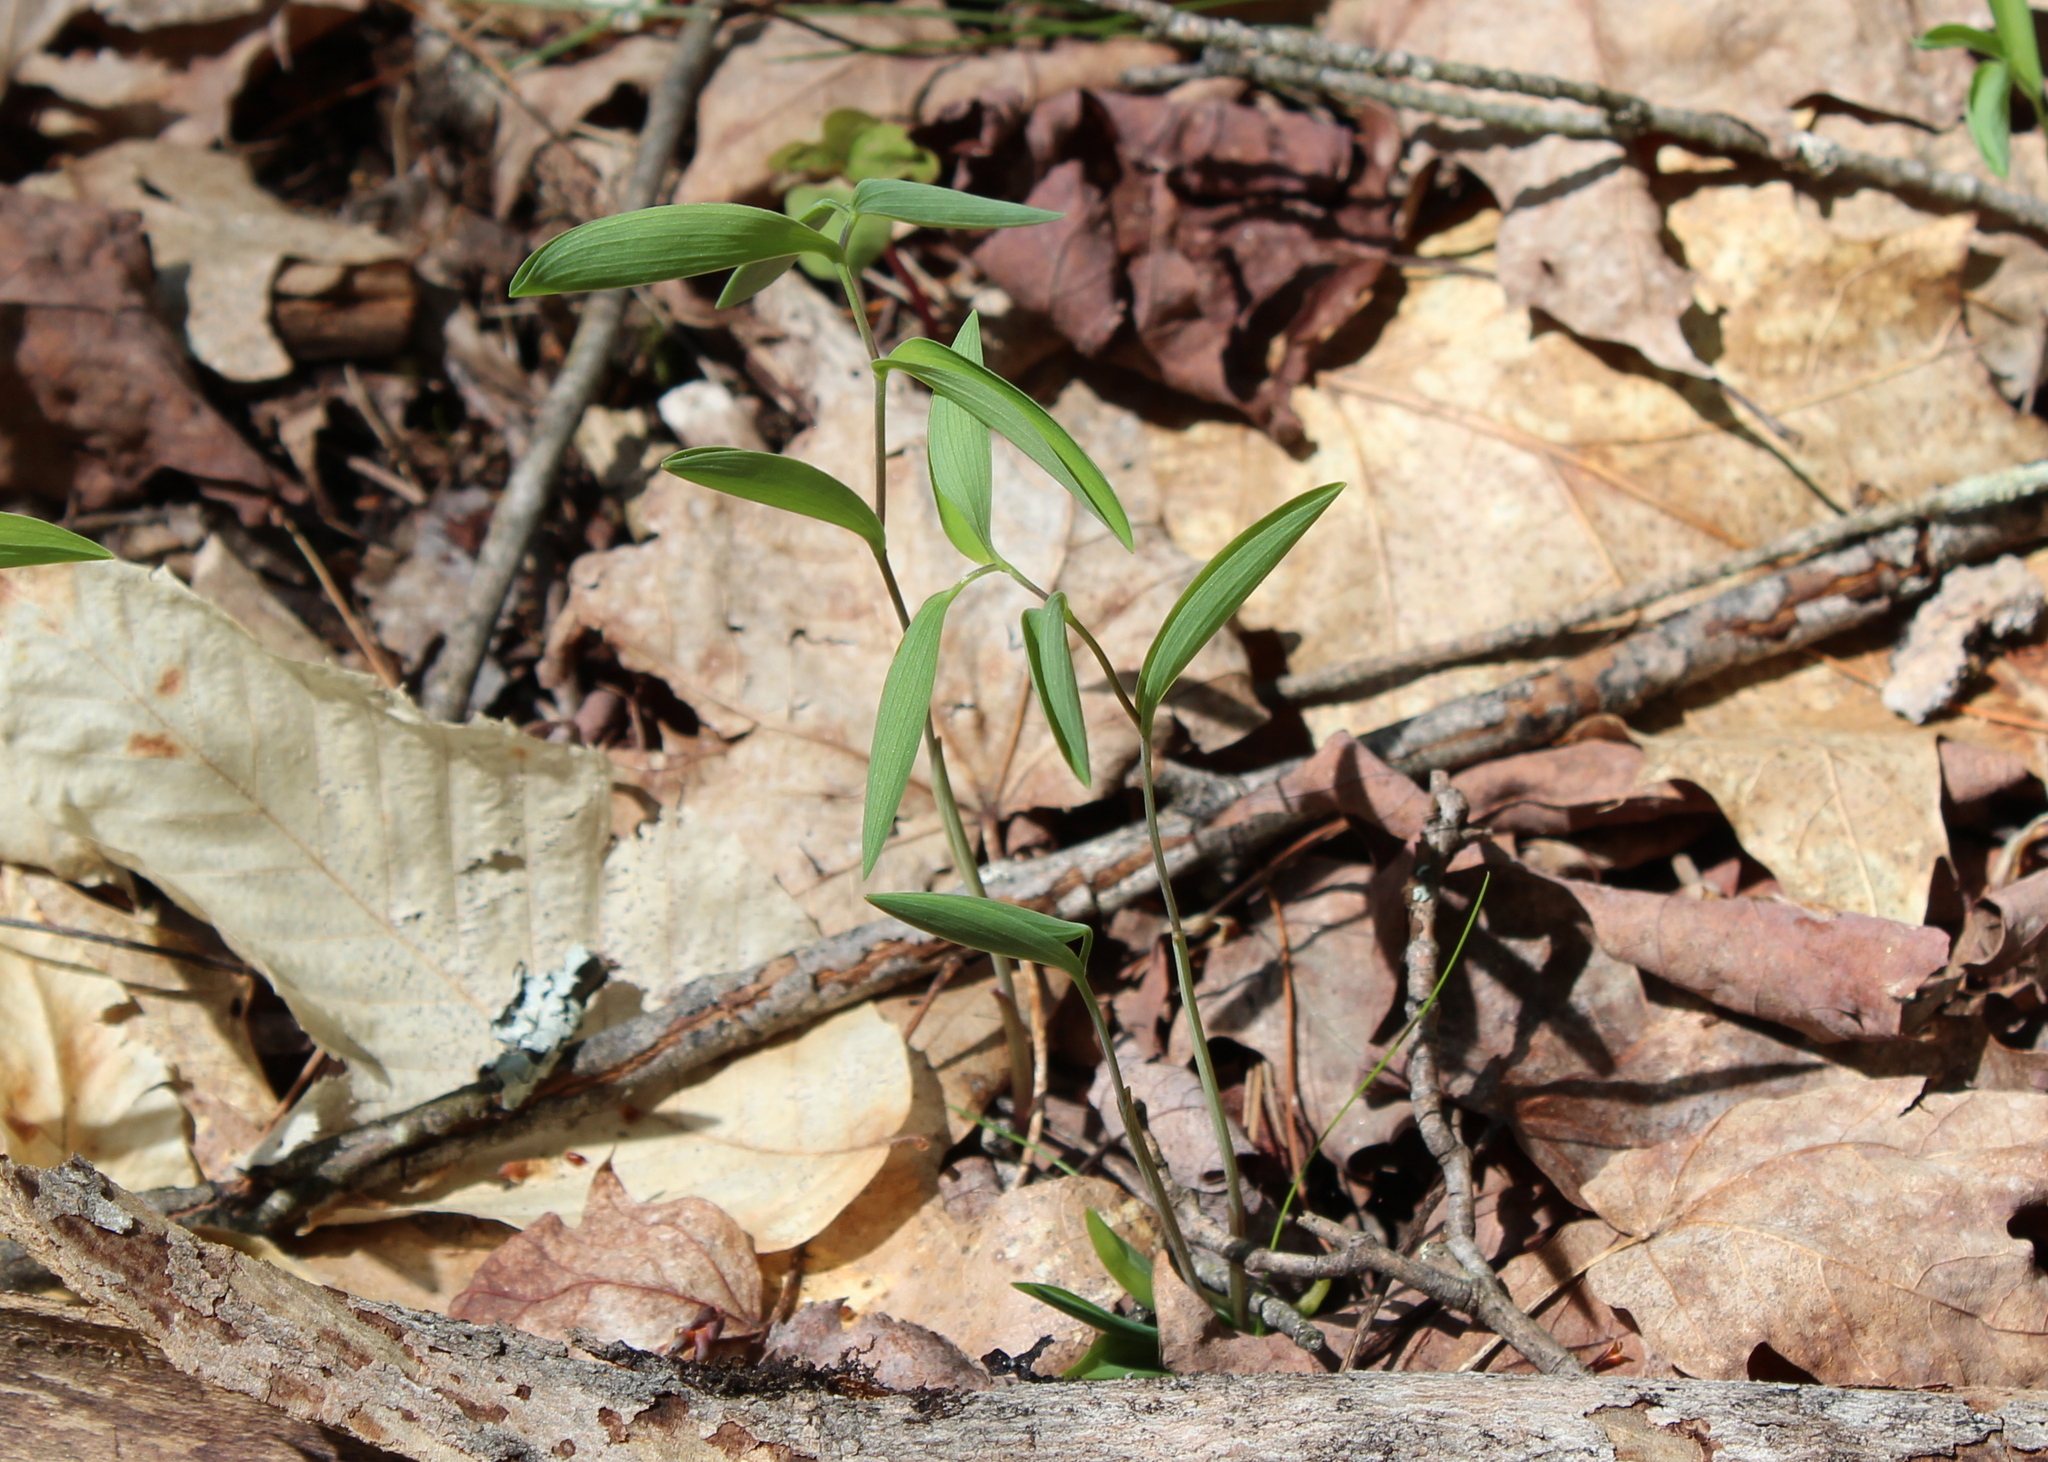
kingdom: Plantae
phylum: Tracheophyta
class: Liliopsida
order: Liliales
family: Colchicaceae
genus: Uvularia
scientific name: Uvularia sessilifolia
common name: Straw-lily
